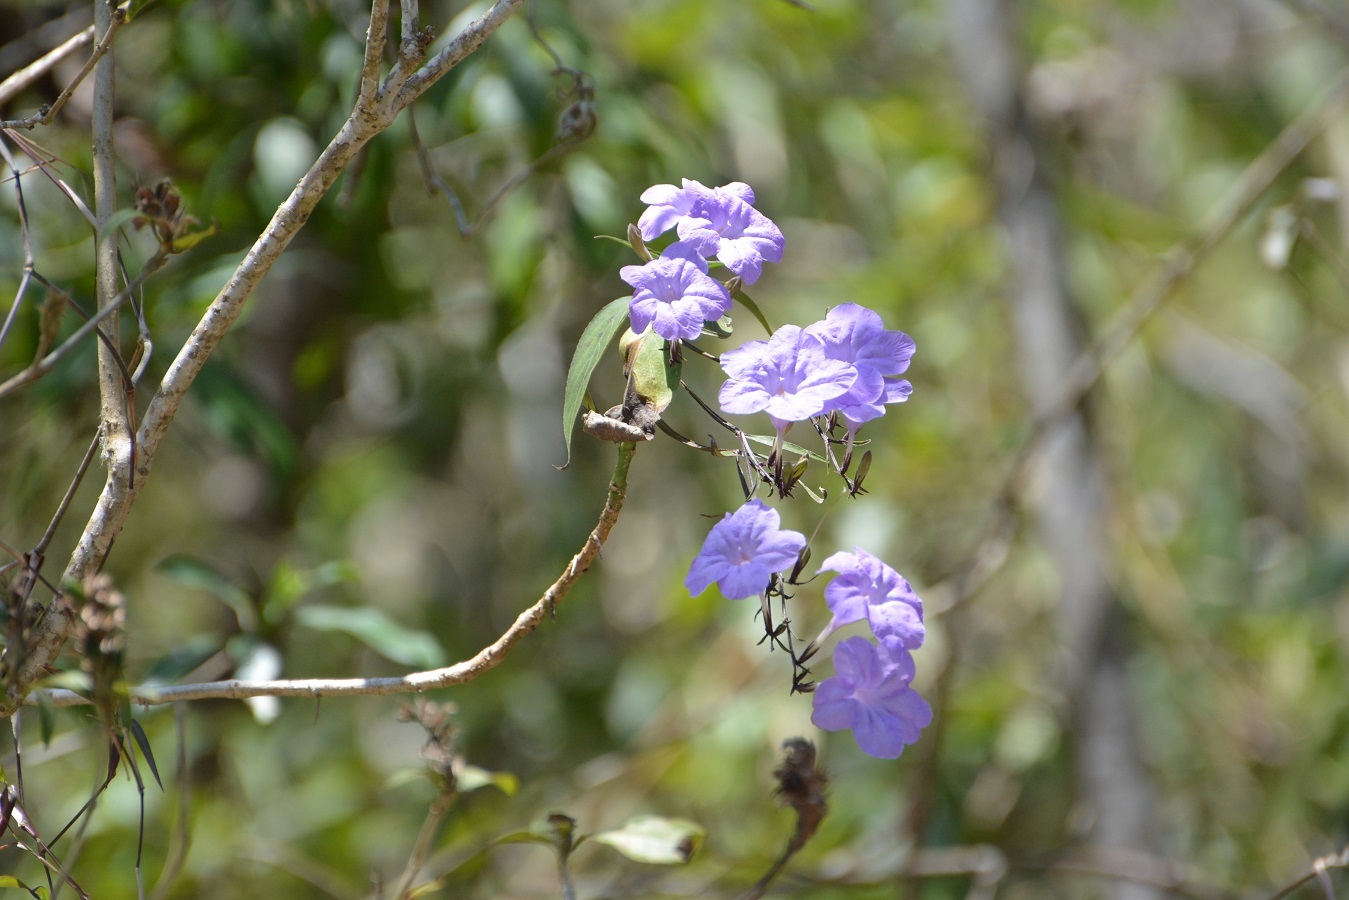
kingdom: Plantae
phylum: Tracheophyta
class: Magnoliopsida
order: Lamiales
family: Acanthaceae
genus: Ruellia
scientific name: Ruellia breedlovei
